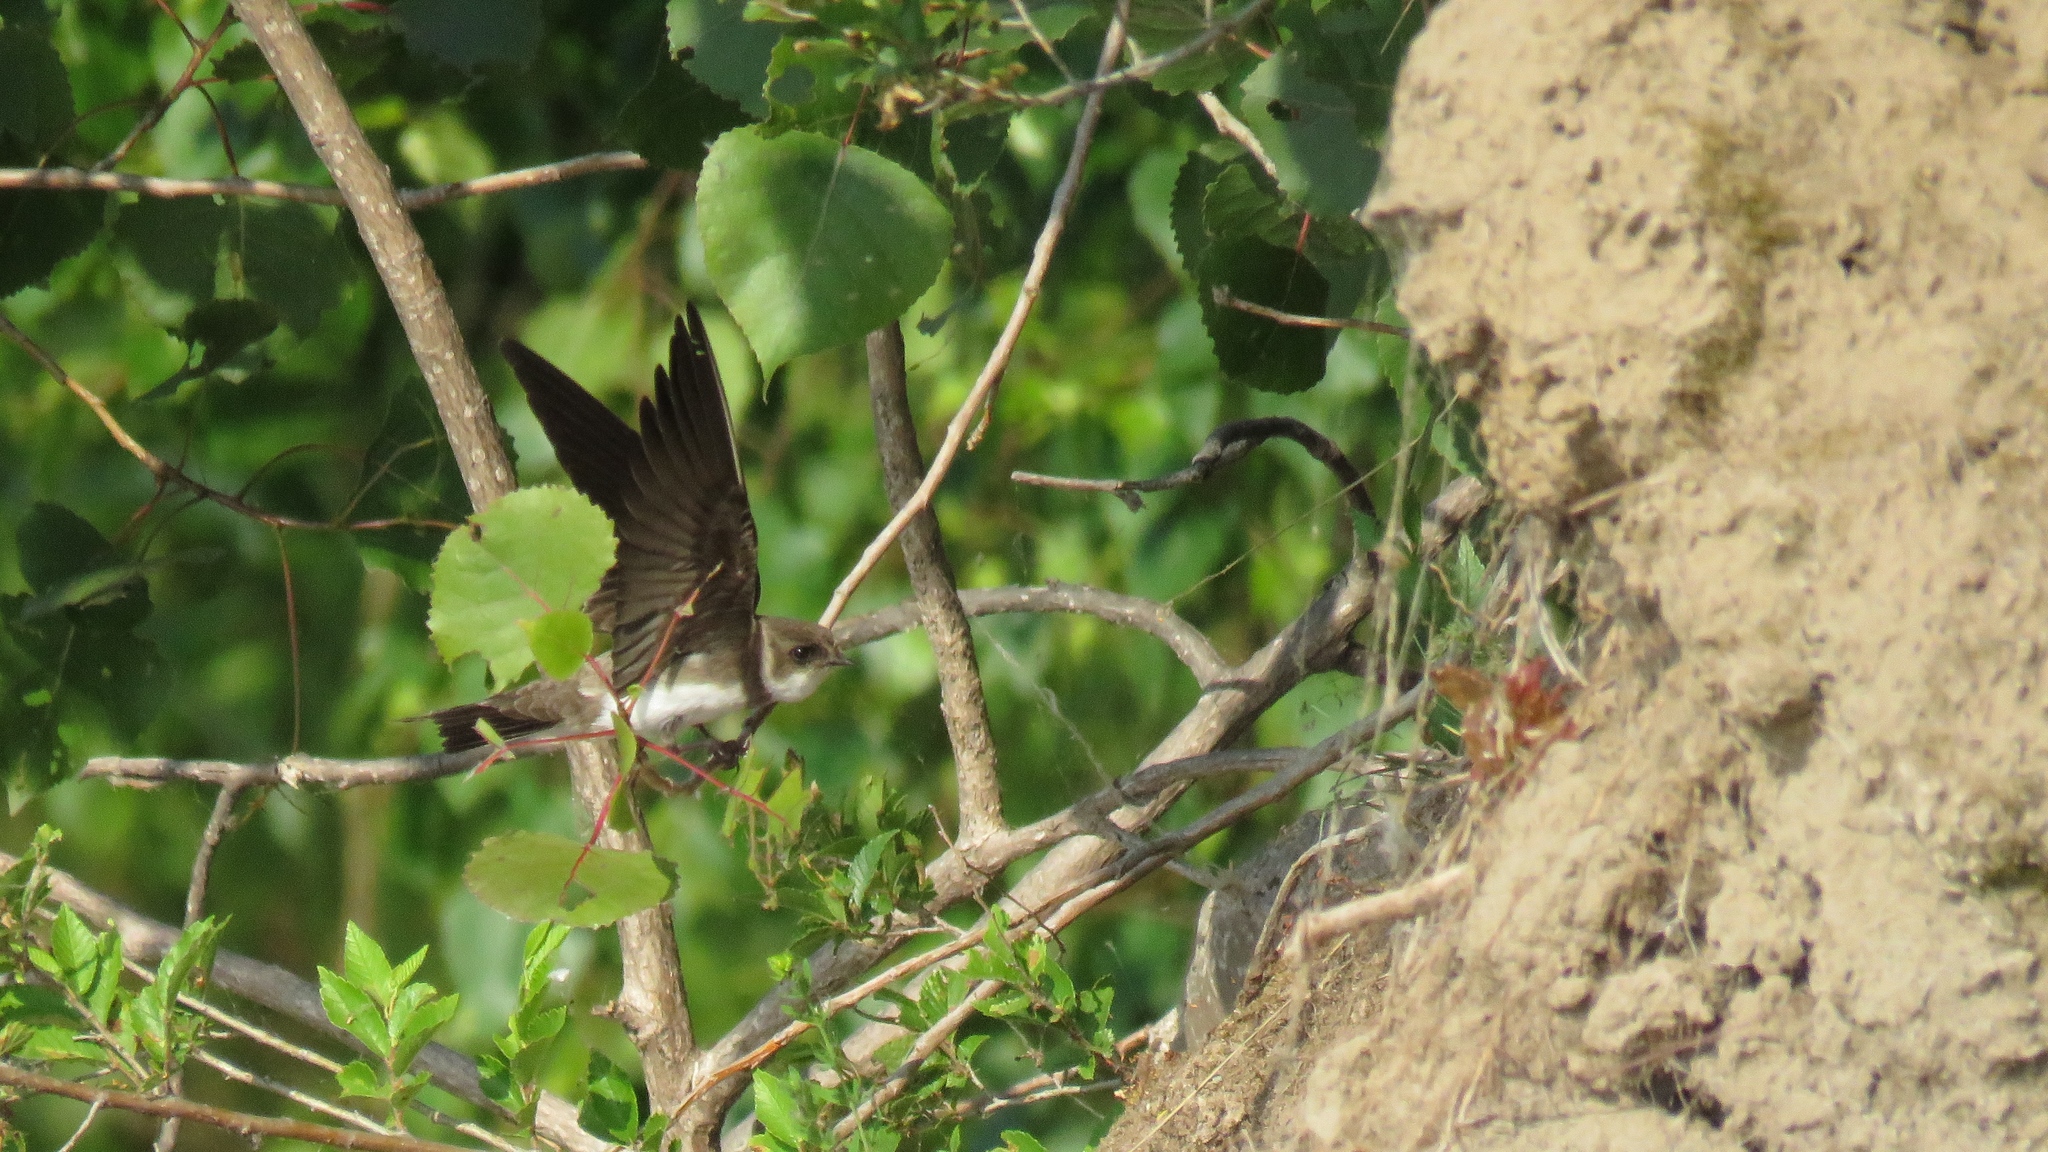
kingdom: Animalia
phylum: Chordata
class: Aves
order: Passeriformes
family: Hirundinidae
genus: Riparia
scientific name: Riparia riparia
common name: Sand martin
